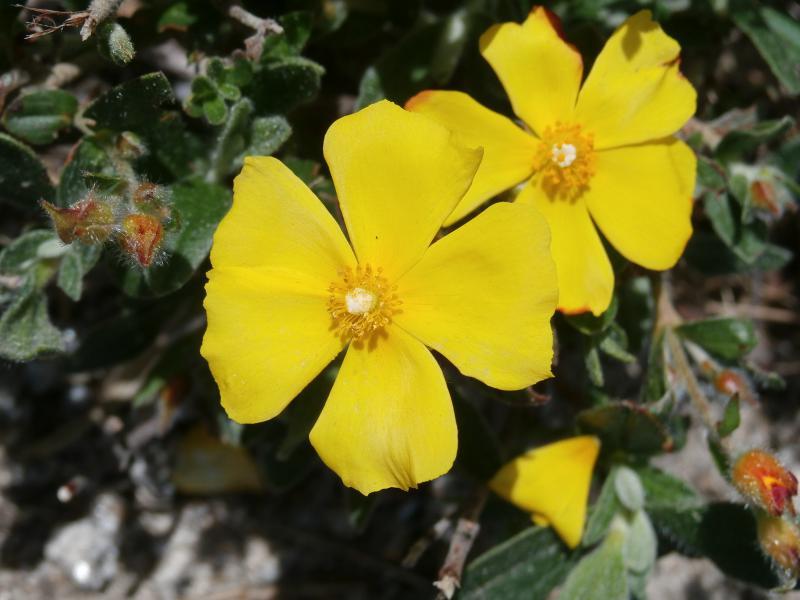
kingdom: Plantae
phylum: Tracheophyta
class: Magnoliopsida
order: Malvales
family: Cistaceae
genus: Halimium
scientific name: Halimium lasianthum
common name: Lisbon false sun-rose
